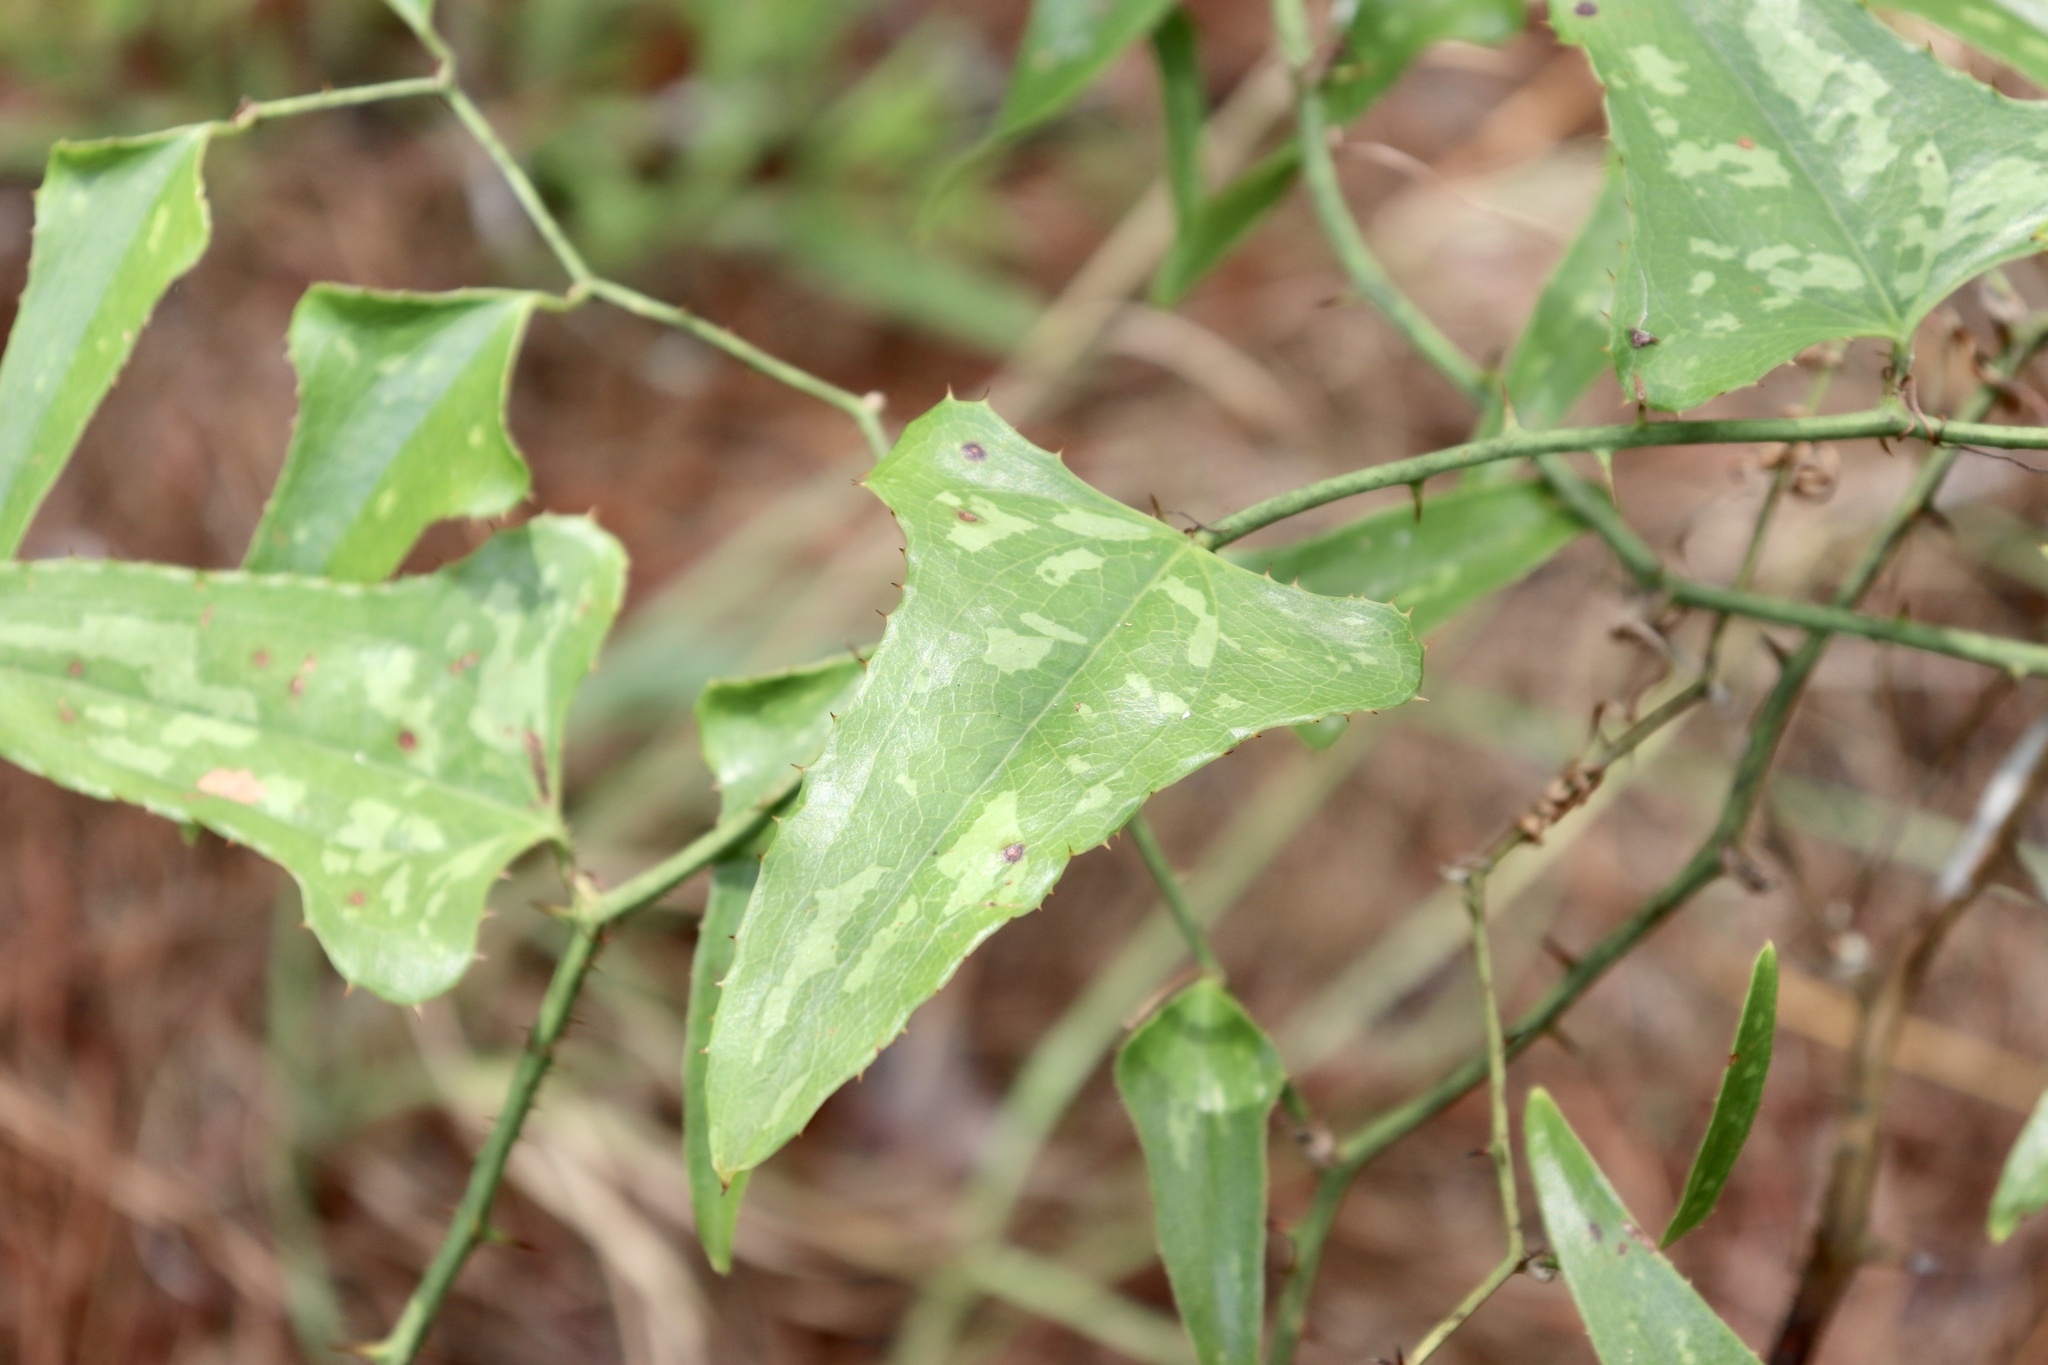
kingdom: Plantae
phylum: Tracheophyta
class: Liliopsida
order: Liliales
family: Smilacaceae
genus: Smilax
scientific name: Smilax bona-nox
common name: Catbrier
